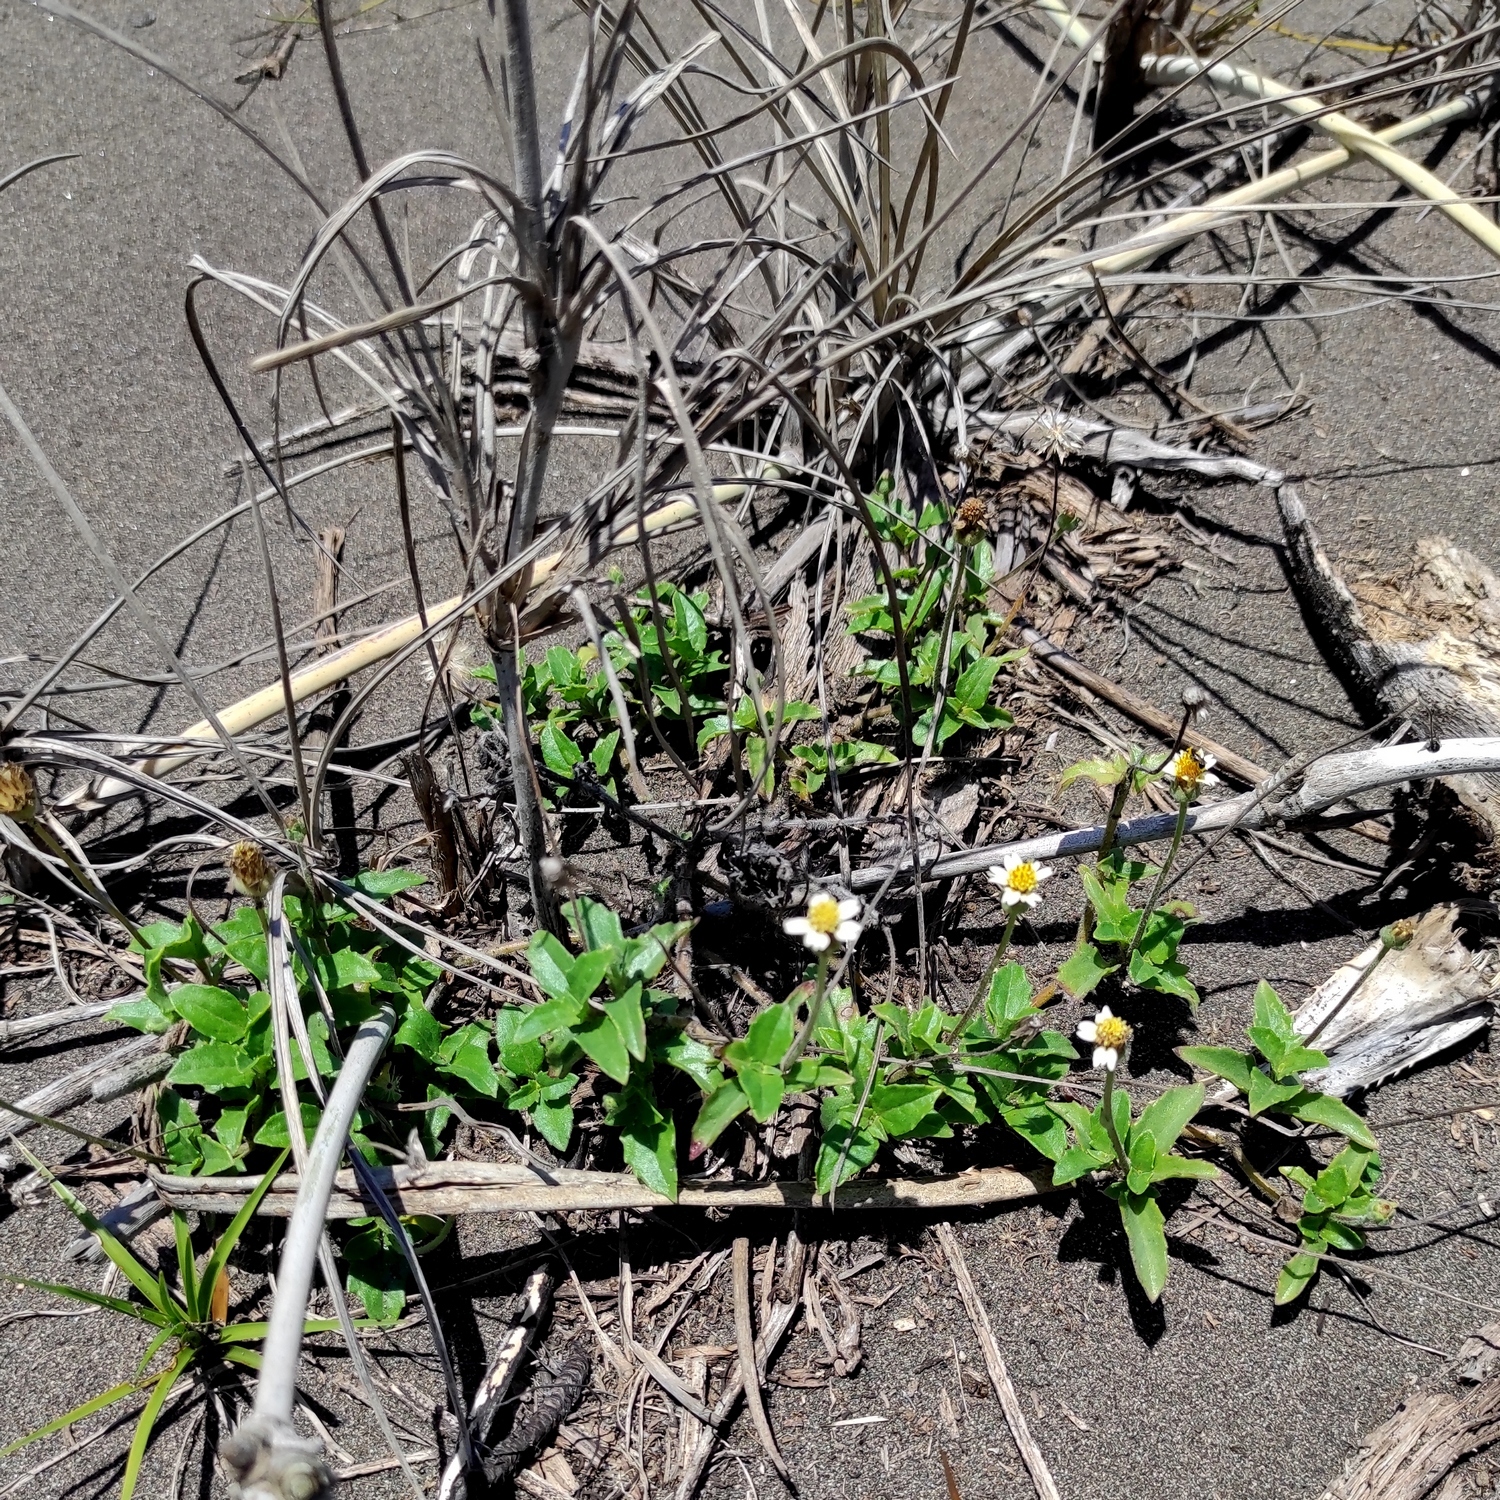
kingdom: Plantae
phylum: Tracheophyta
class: Magnoliopsida
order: Asterales
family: Asteraceae
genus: Tridax
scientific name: Tridax procumbens
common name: Coatbuttons
